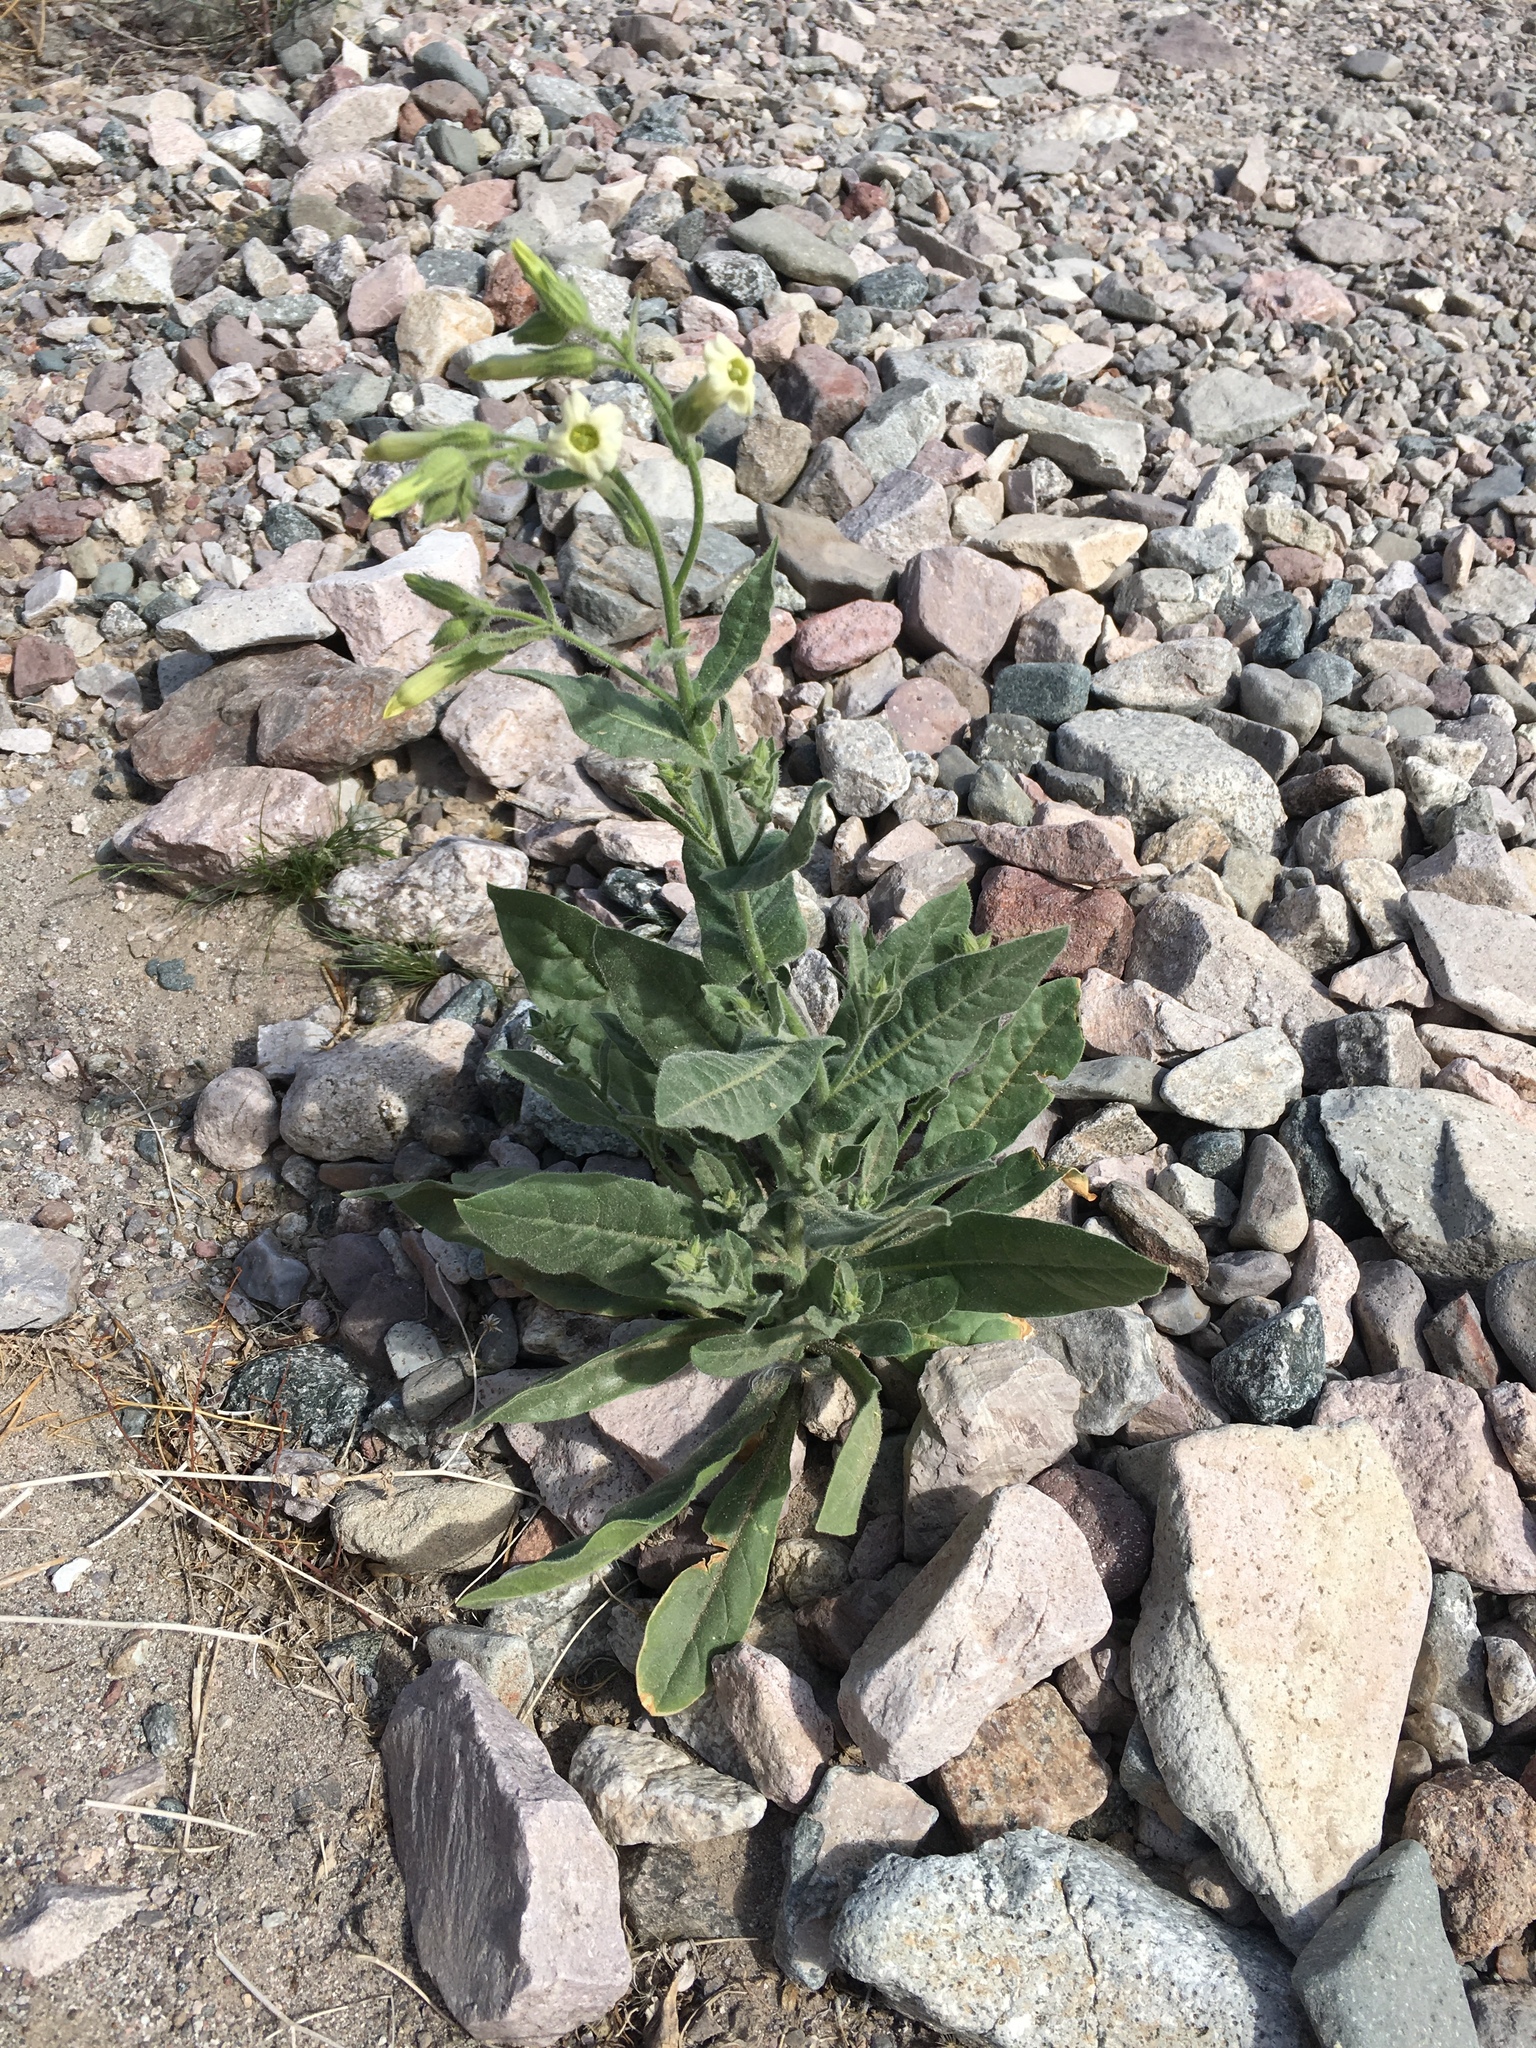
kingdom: Plantae
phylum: Tracheophyta
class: Magnoliopsida
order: Solanales
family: Solanaceae
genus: Nicotiana
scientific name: Nicotiana obtusifolia
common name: Desert tobacco
